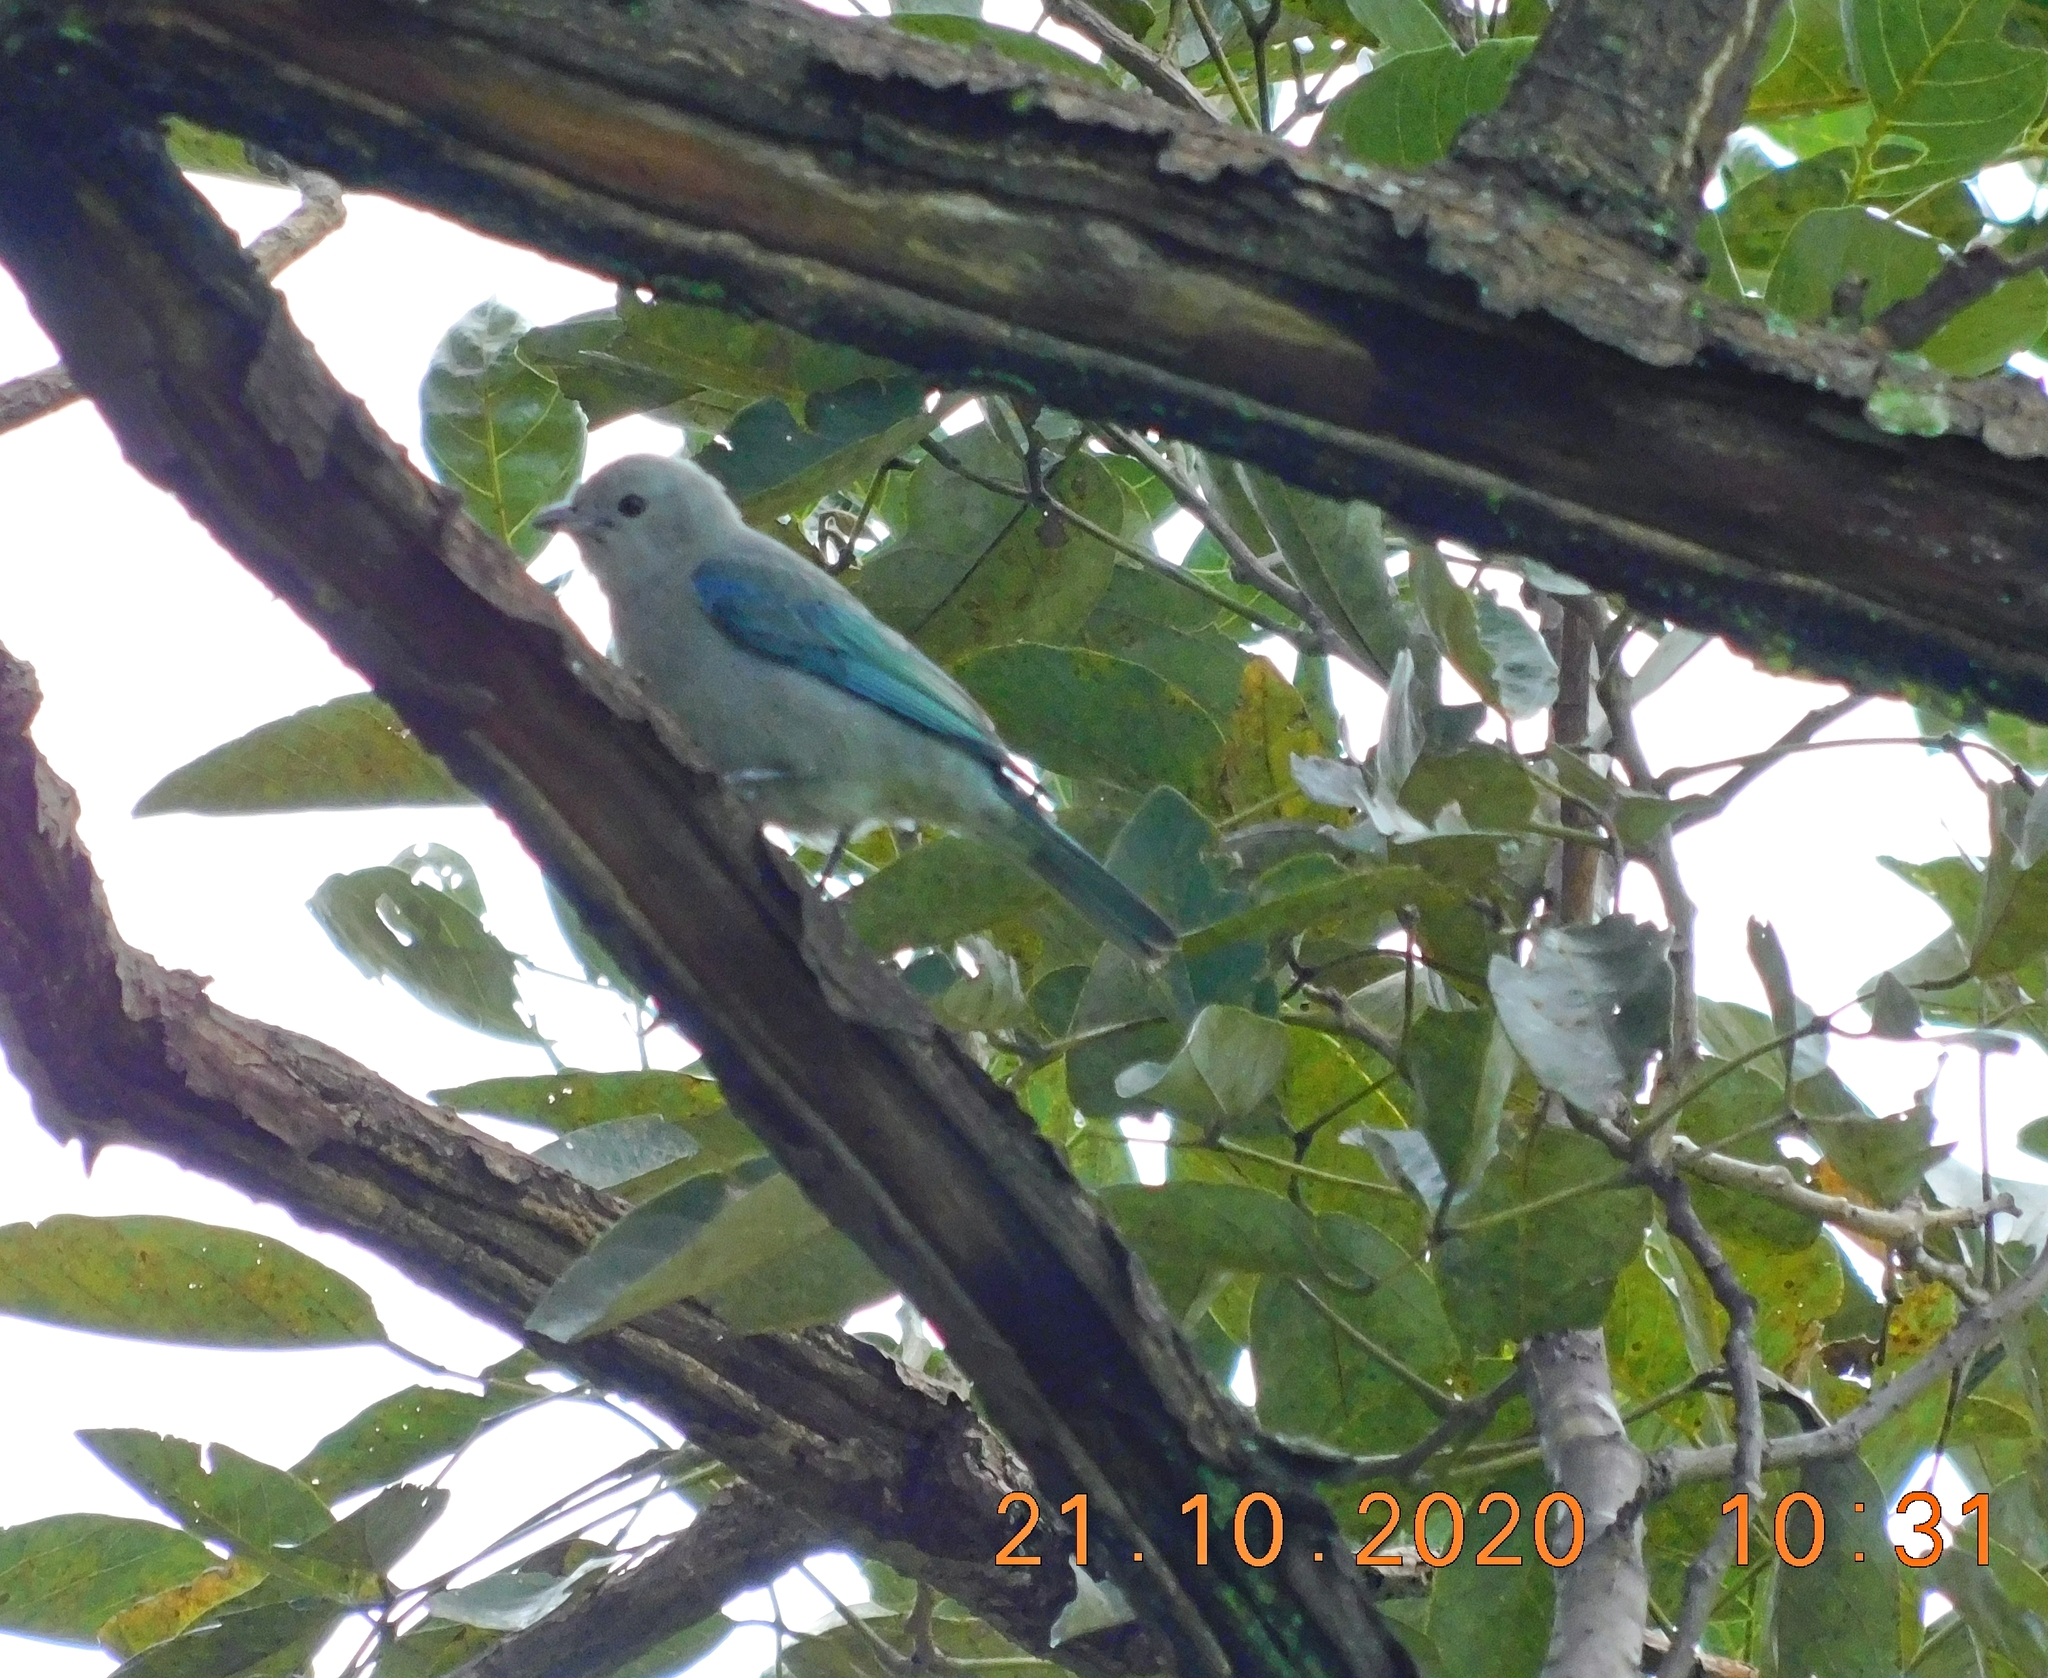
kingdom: Animalia
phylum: Chordata
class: Aves
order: Passeriformes
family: Thraupidae
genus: Thraupis
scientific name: Thraupis episcopus
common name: Blue-grey tanager
